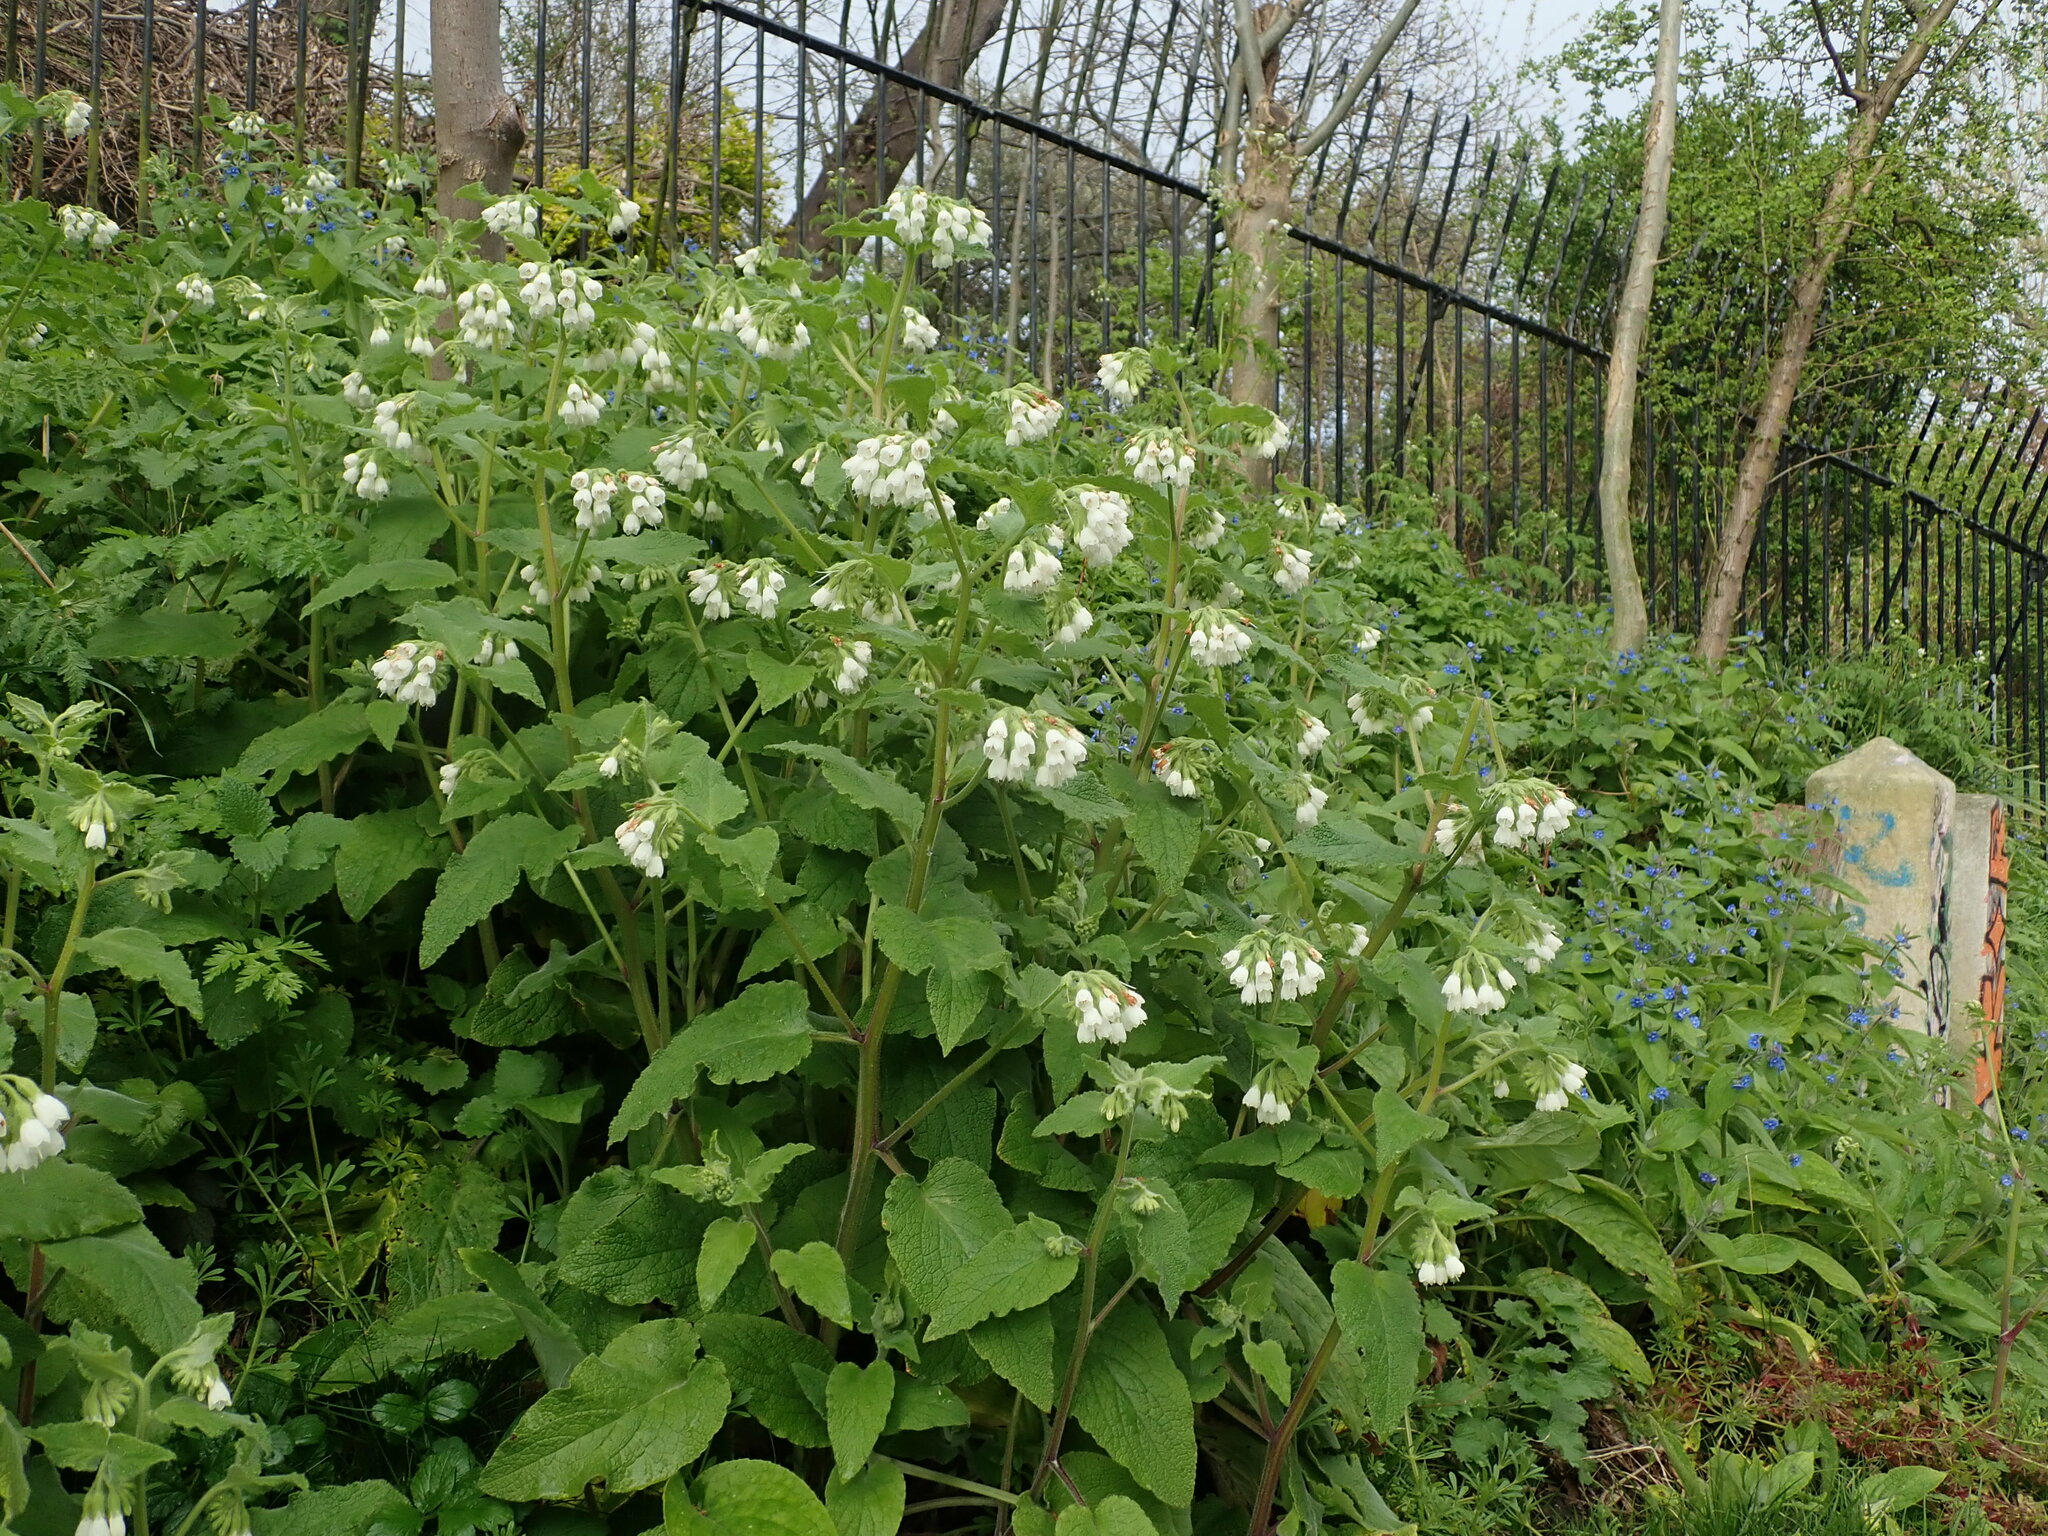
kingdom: Plantae
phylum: Tracheophyta
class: Magnoliopsida
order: Boraginales
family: Boraginaceae
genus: Symphytum
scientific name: Symphytum orientale
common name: White comfrey
